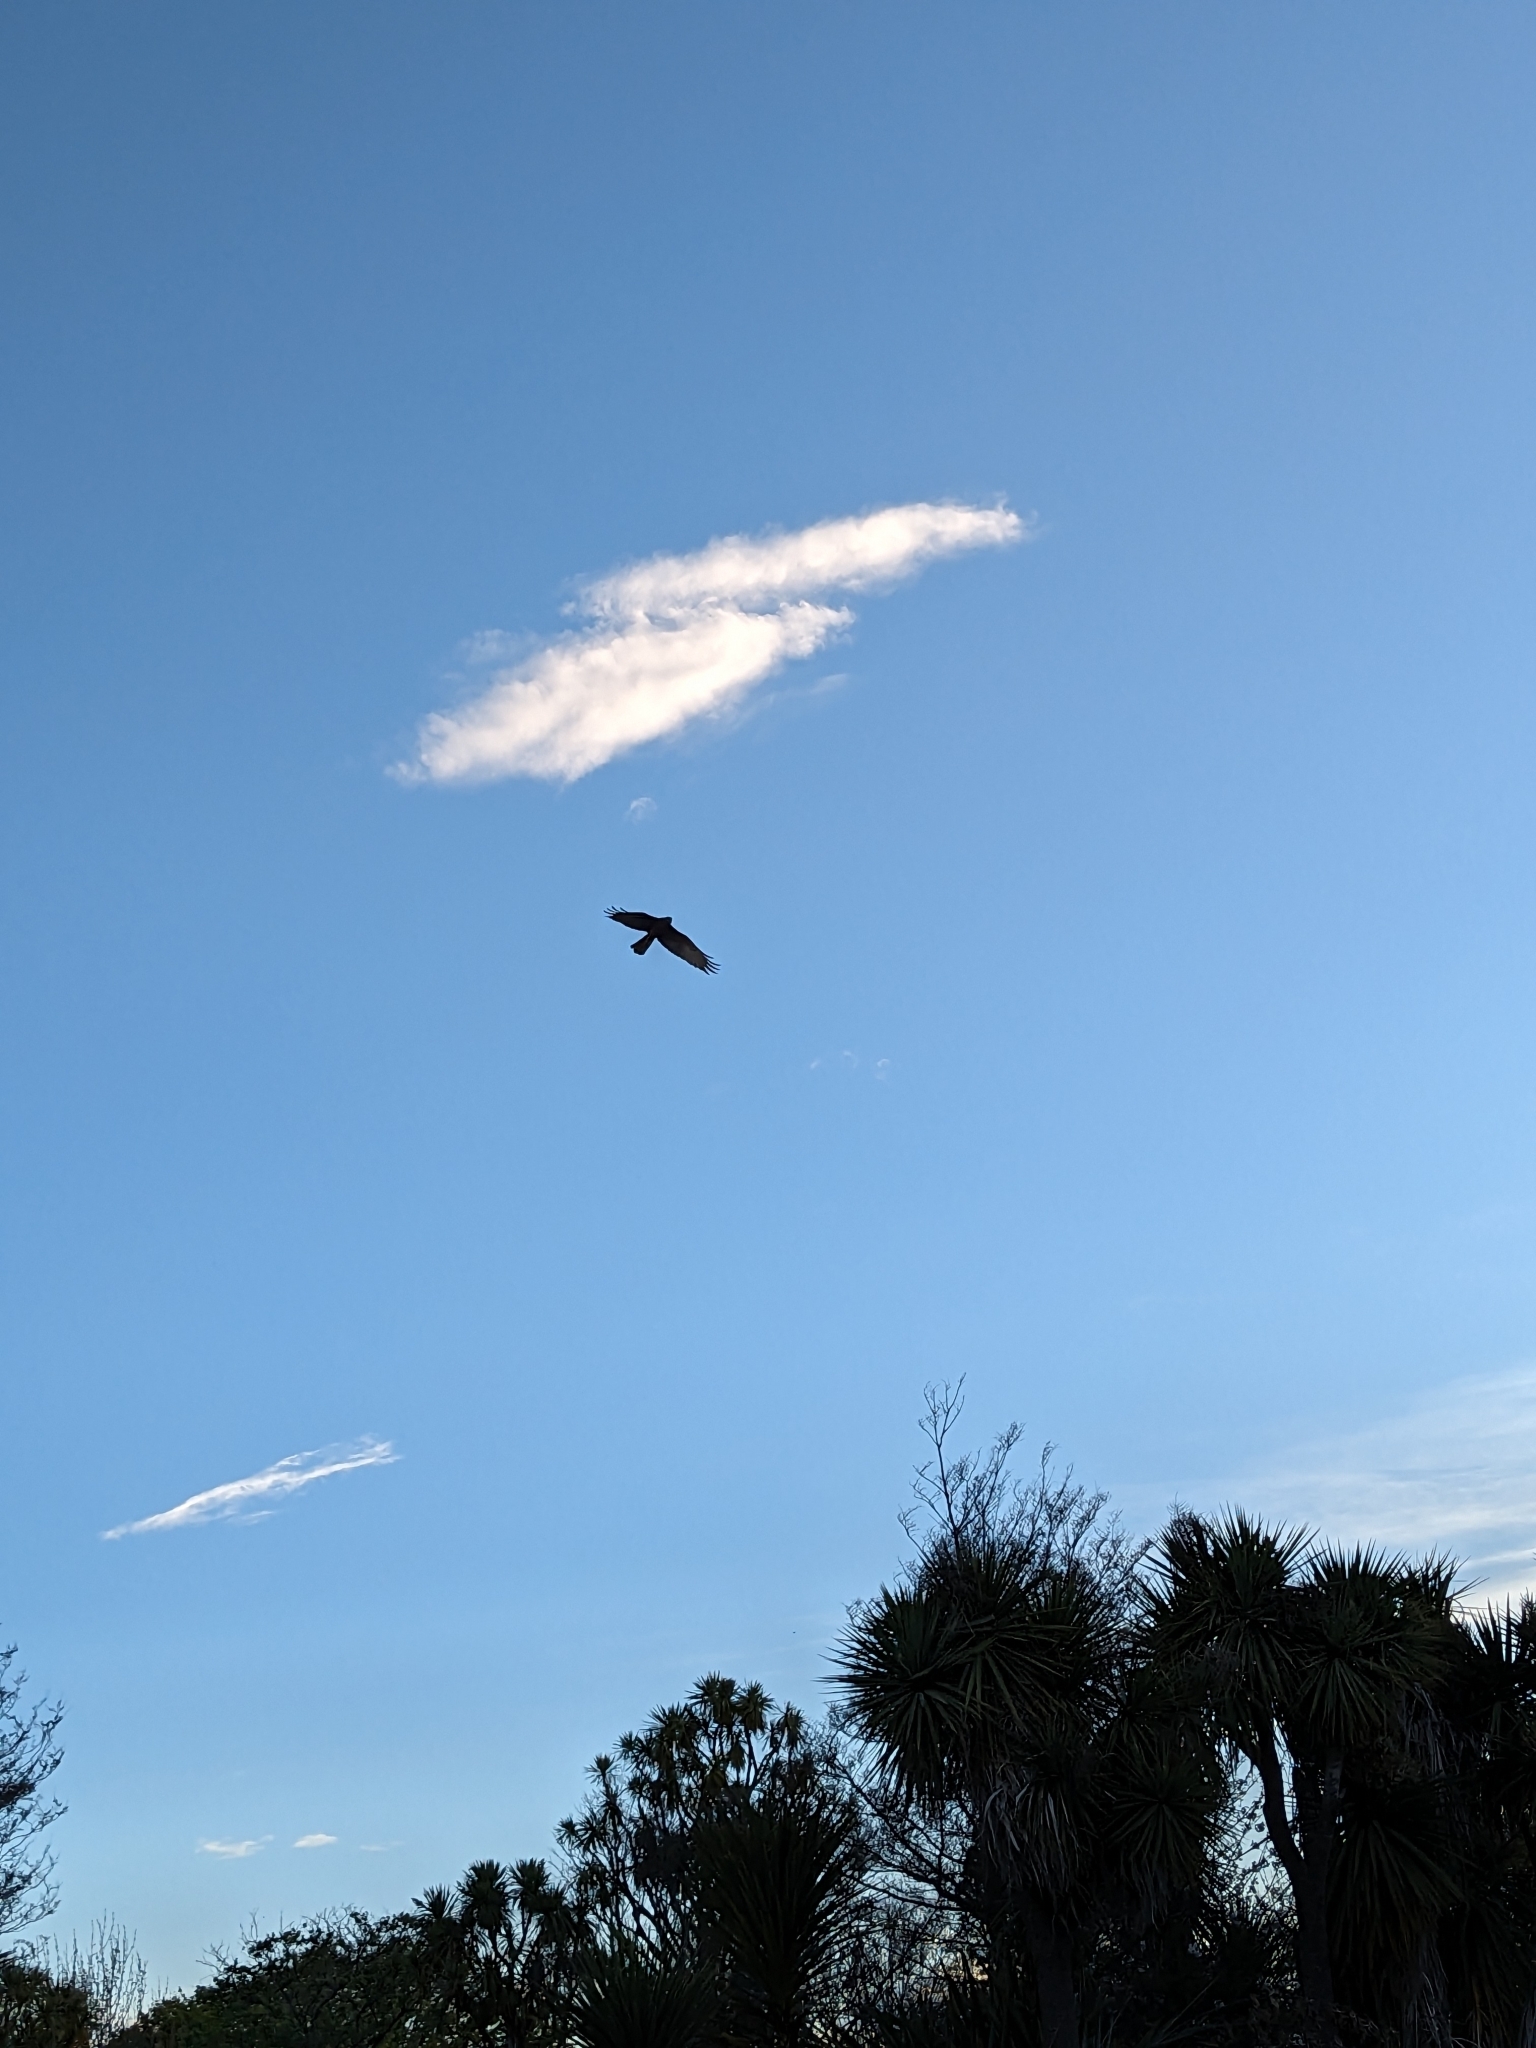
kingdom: Animalia
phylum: Chordata
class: Aves
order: Accipitriformes
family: Accipitridae
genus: Circus
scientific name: Circus approximans
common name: Swamp harrier
